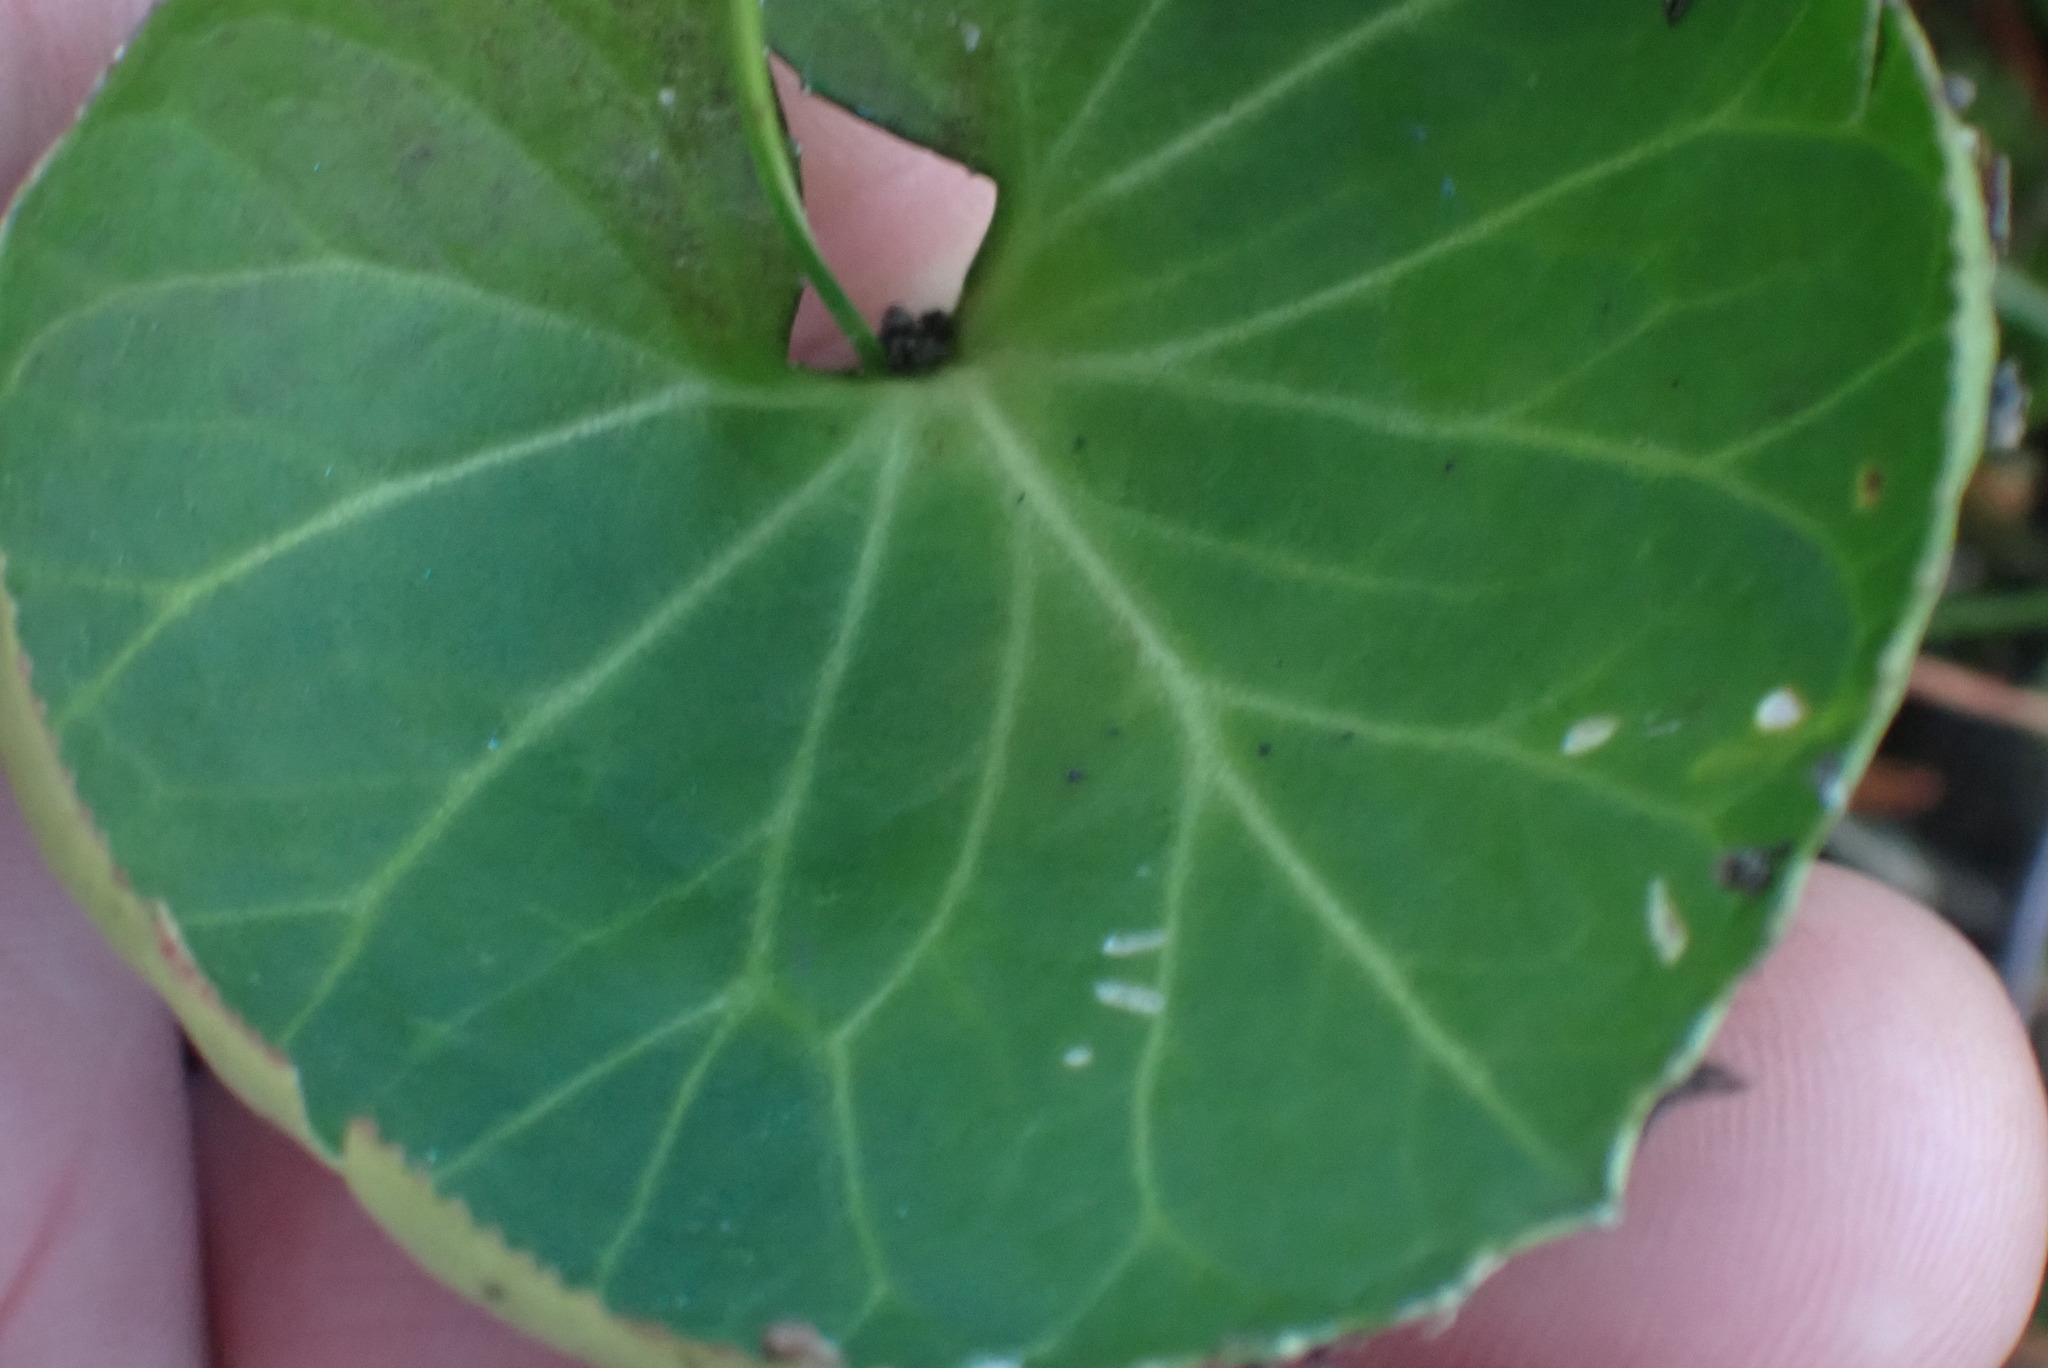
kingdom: Plantae
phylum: Tracheophyta
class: Magnoliopsida
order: Asterales
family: Menyanthaceae
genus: Nephrophyllidium
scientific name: Nephrophyllidium crista-galli
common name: Deer-cabbage
